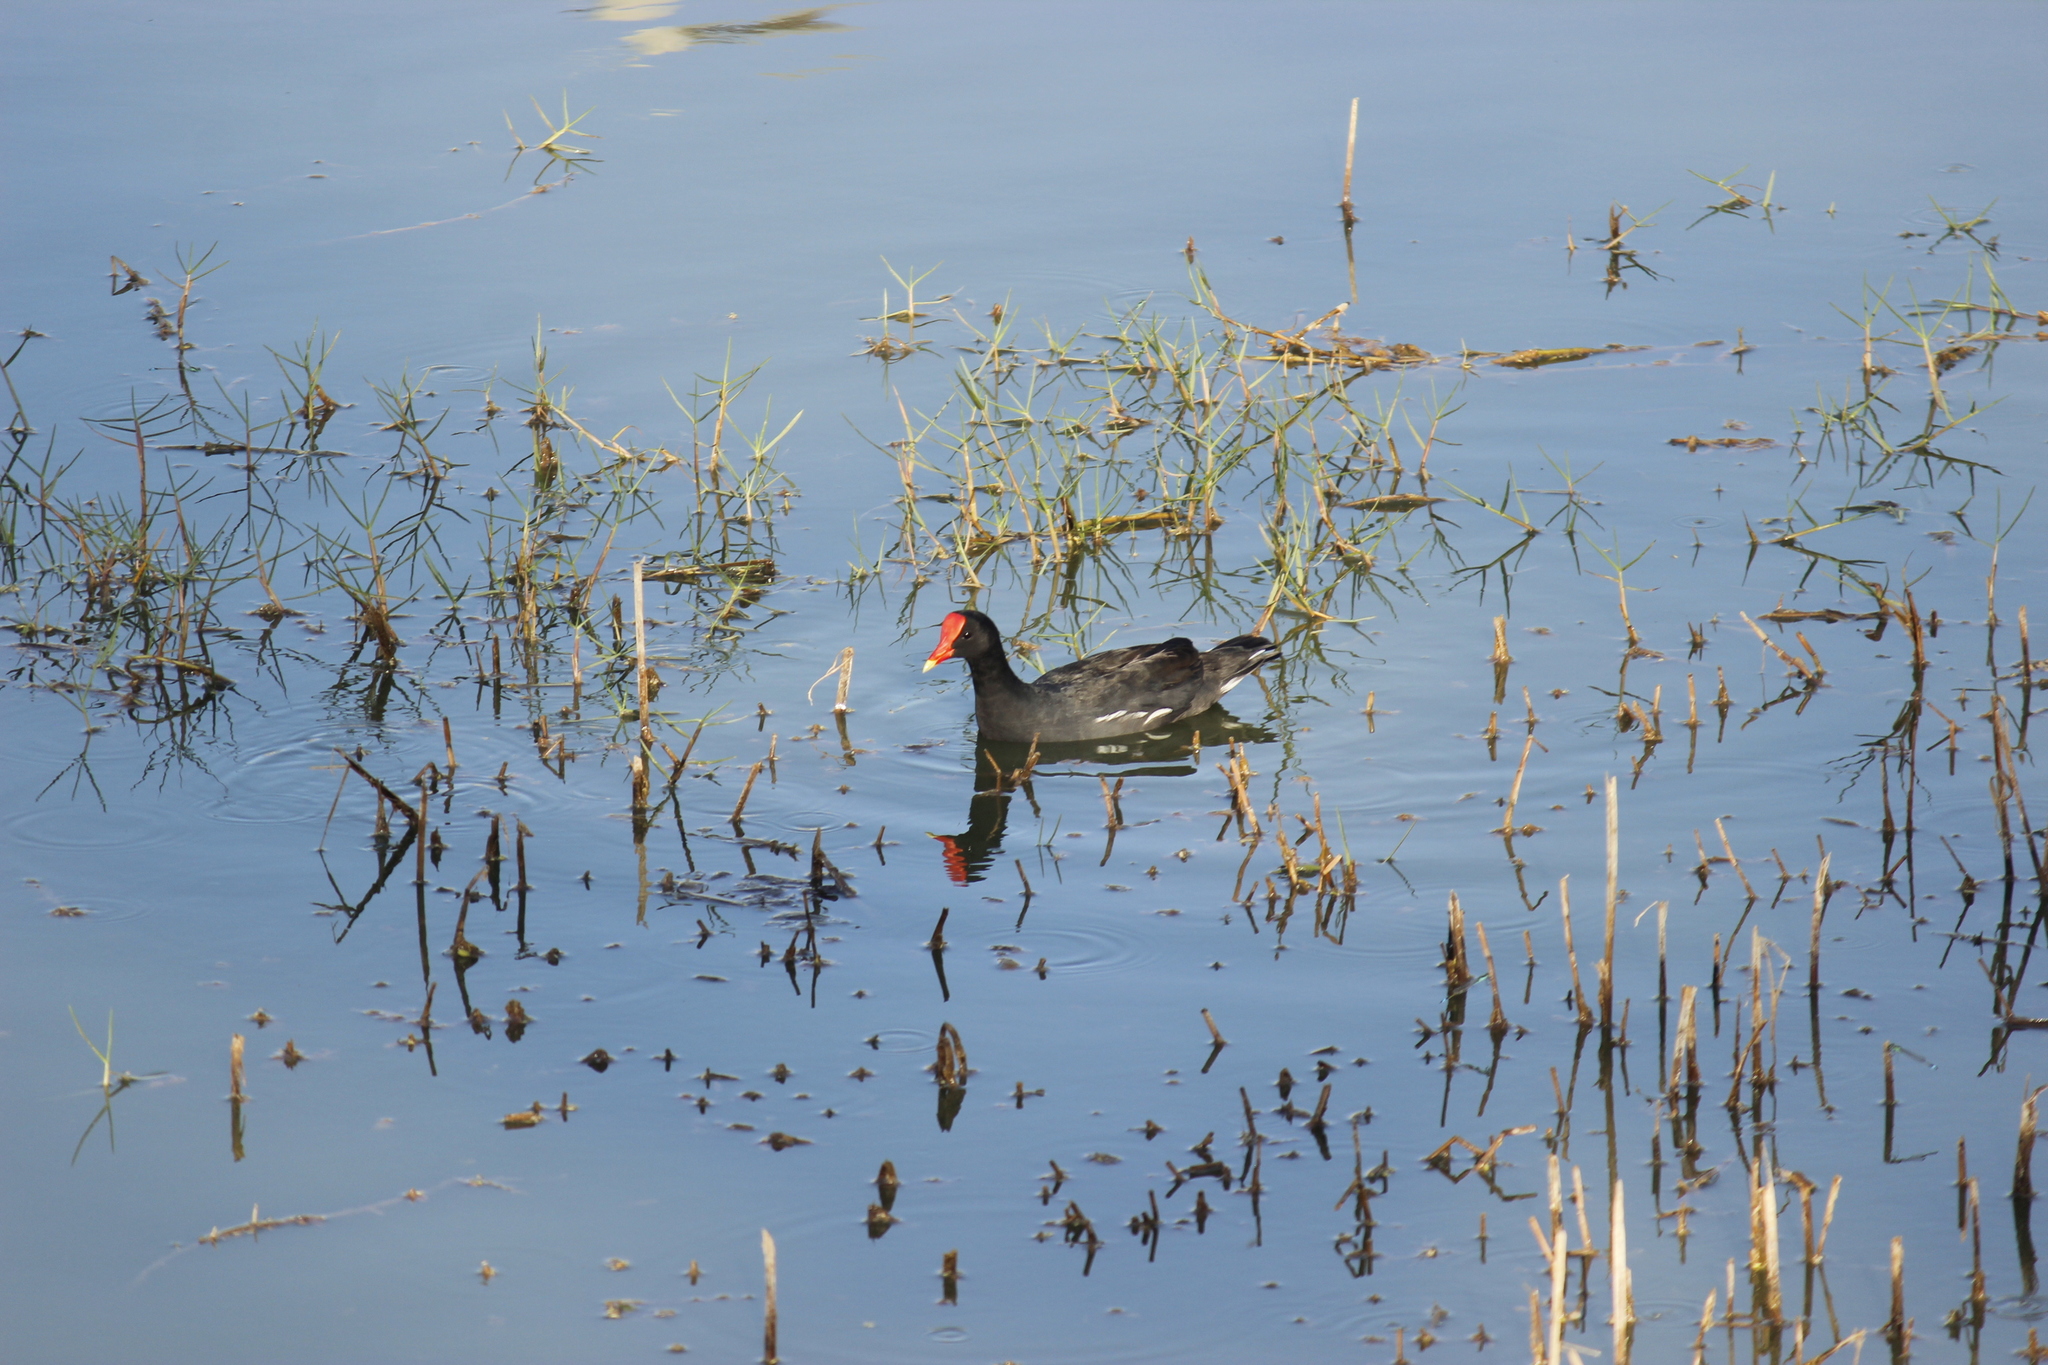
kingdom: Animalia
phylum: Chordata
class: Aves
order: Gruiformes
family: Rallidae
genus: Gallinula
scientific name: Gallinula chloropus
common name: Common moorhen
